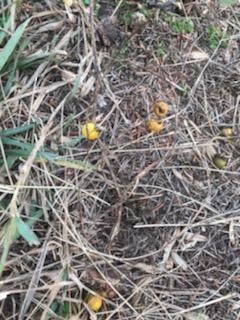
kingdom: Plantae
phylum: Tracheophyta
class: Magnoliopsida
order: Solanales
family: Solanaceae
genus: Solanum
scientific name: Solanum carolinense
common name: Horse-nettle
